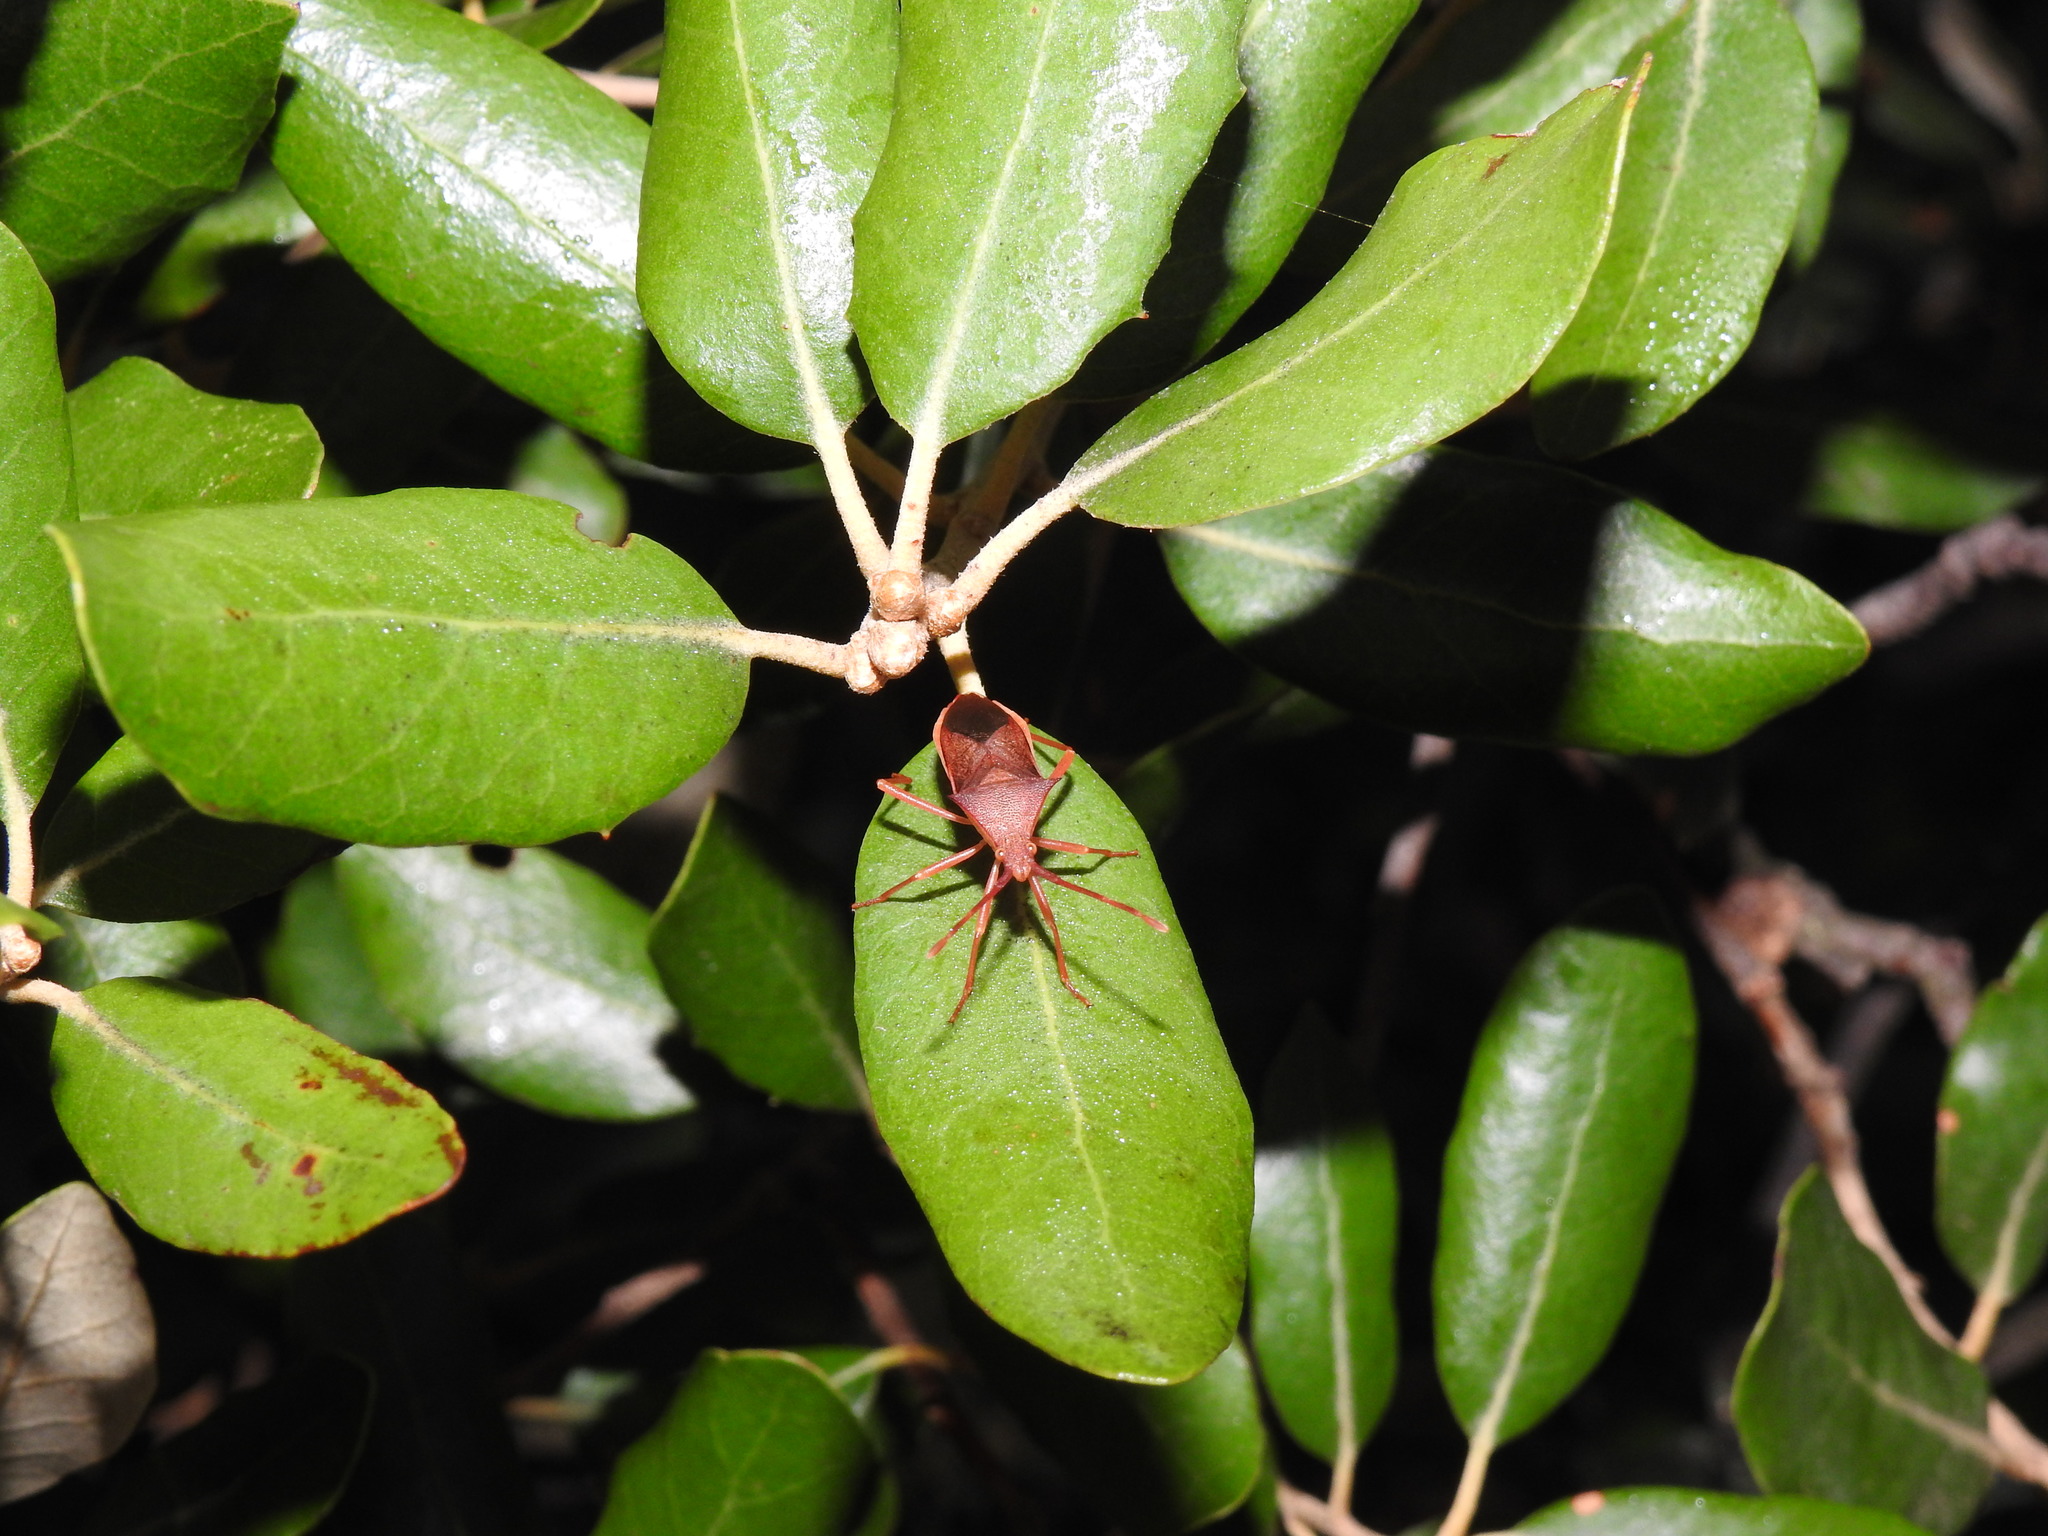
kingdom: Animalia
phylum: Arthropoda
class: Insecta
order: Hemiptera
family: Coreidae
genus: Gonocerus
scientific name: Gonocerus insidiator
